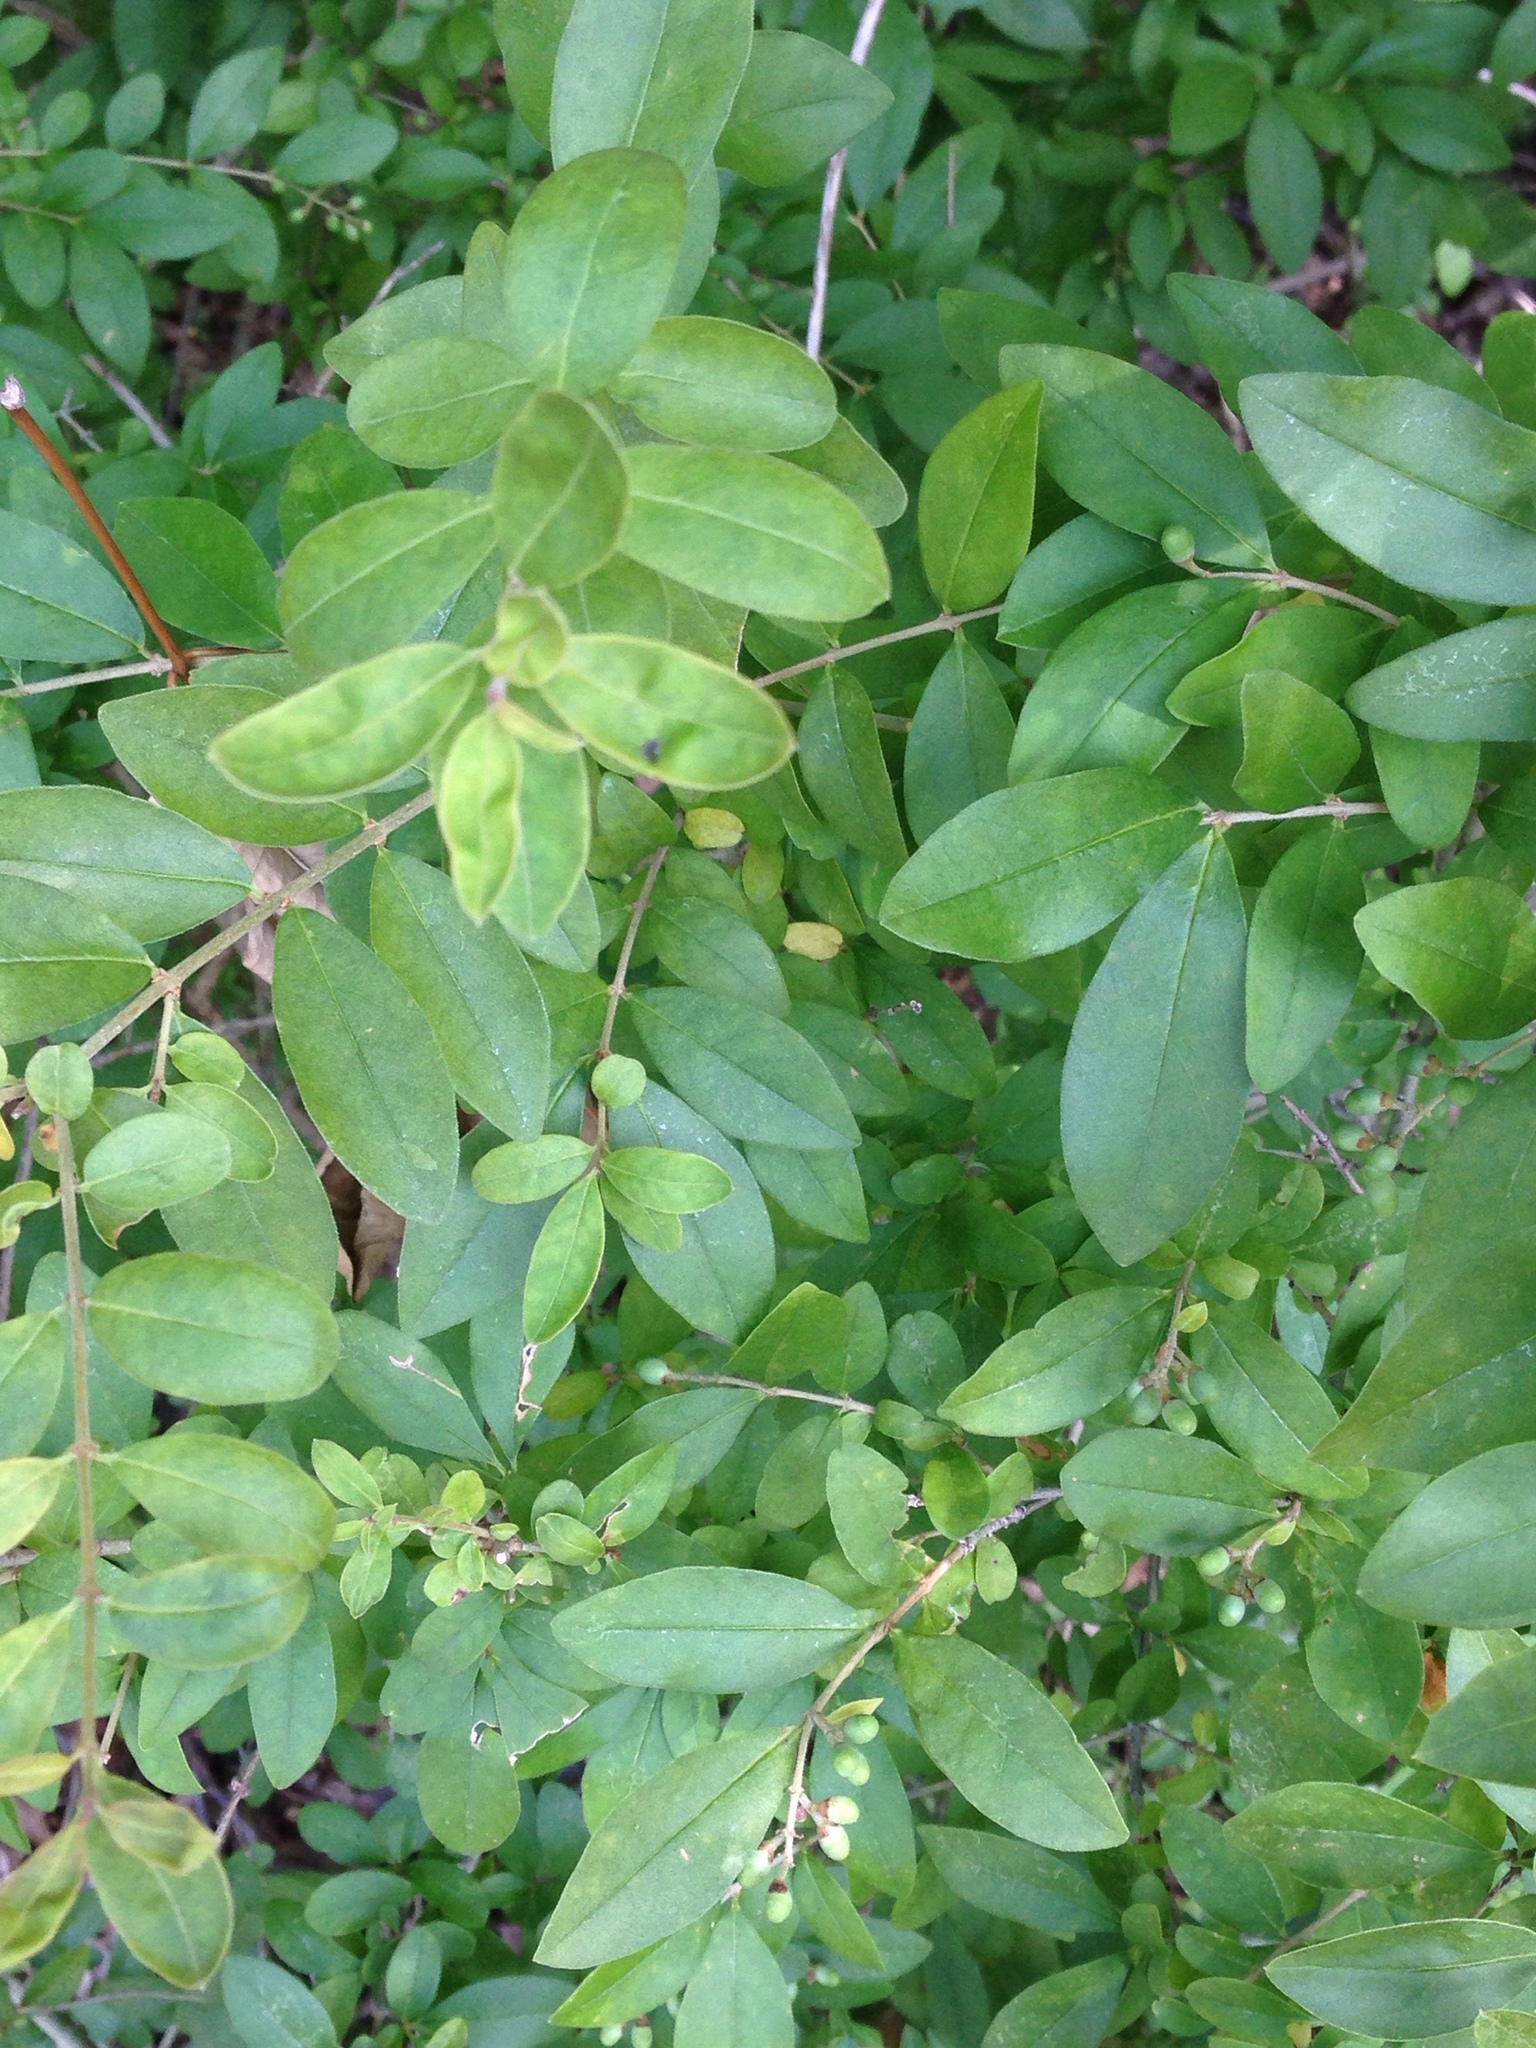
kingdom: Plantae
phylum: Tracheophyta
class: Magnoliopsida
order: Lamiales
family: Oleaceae
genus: Ligustrum
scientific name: Ligustrum obtusifolium
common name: Border privet
